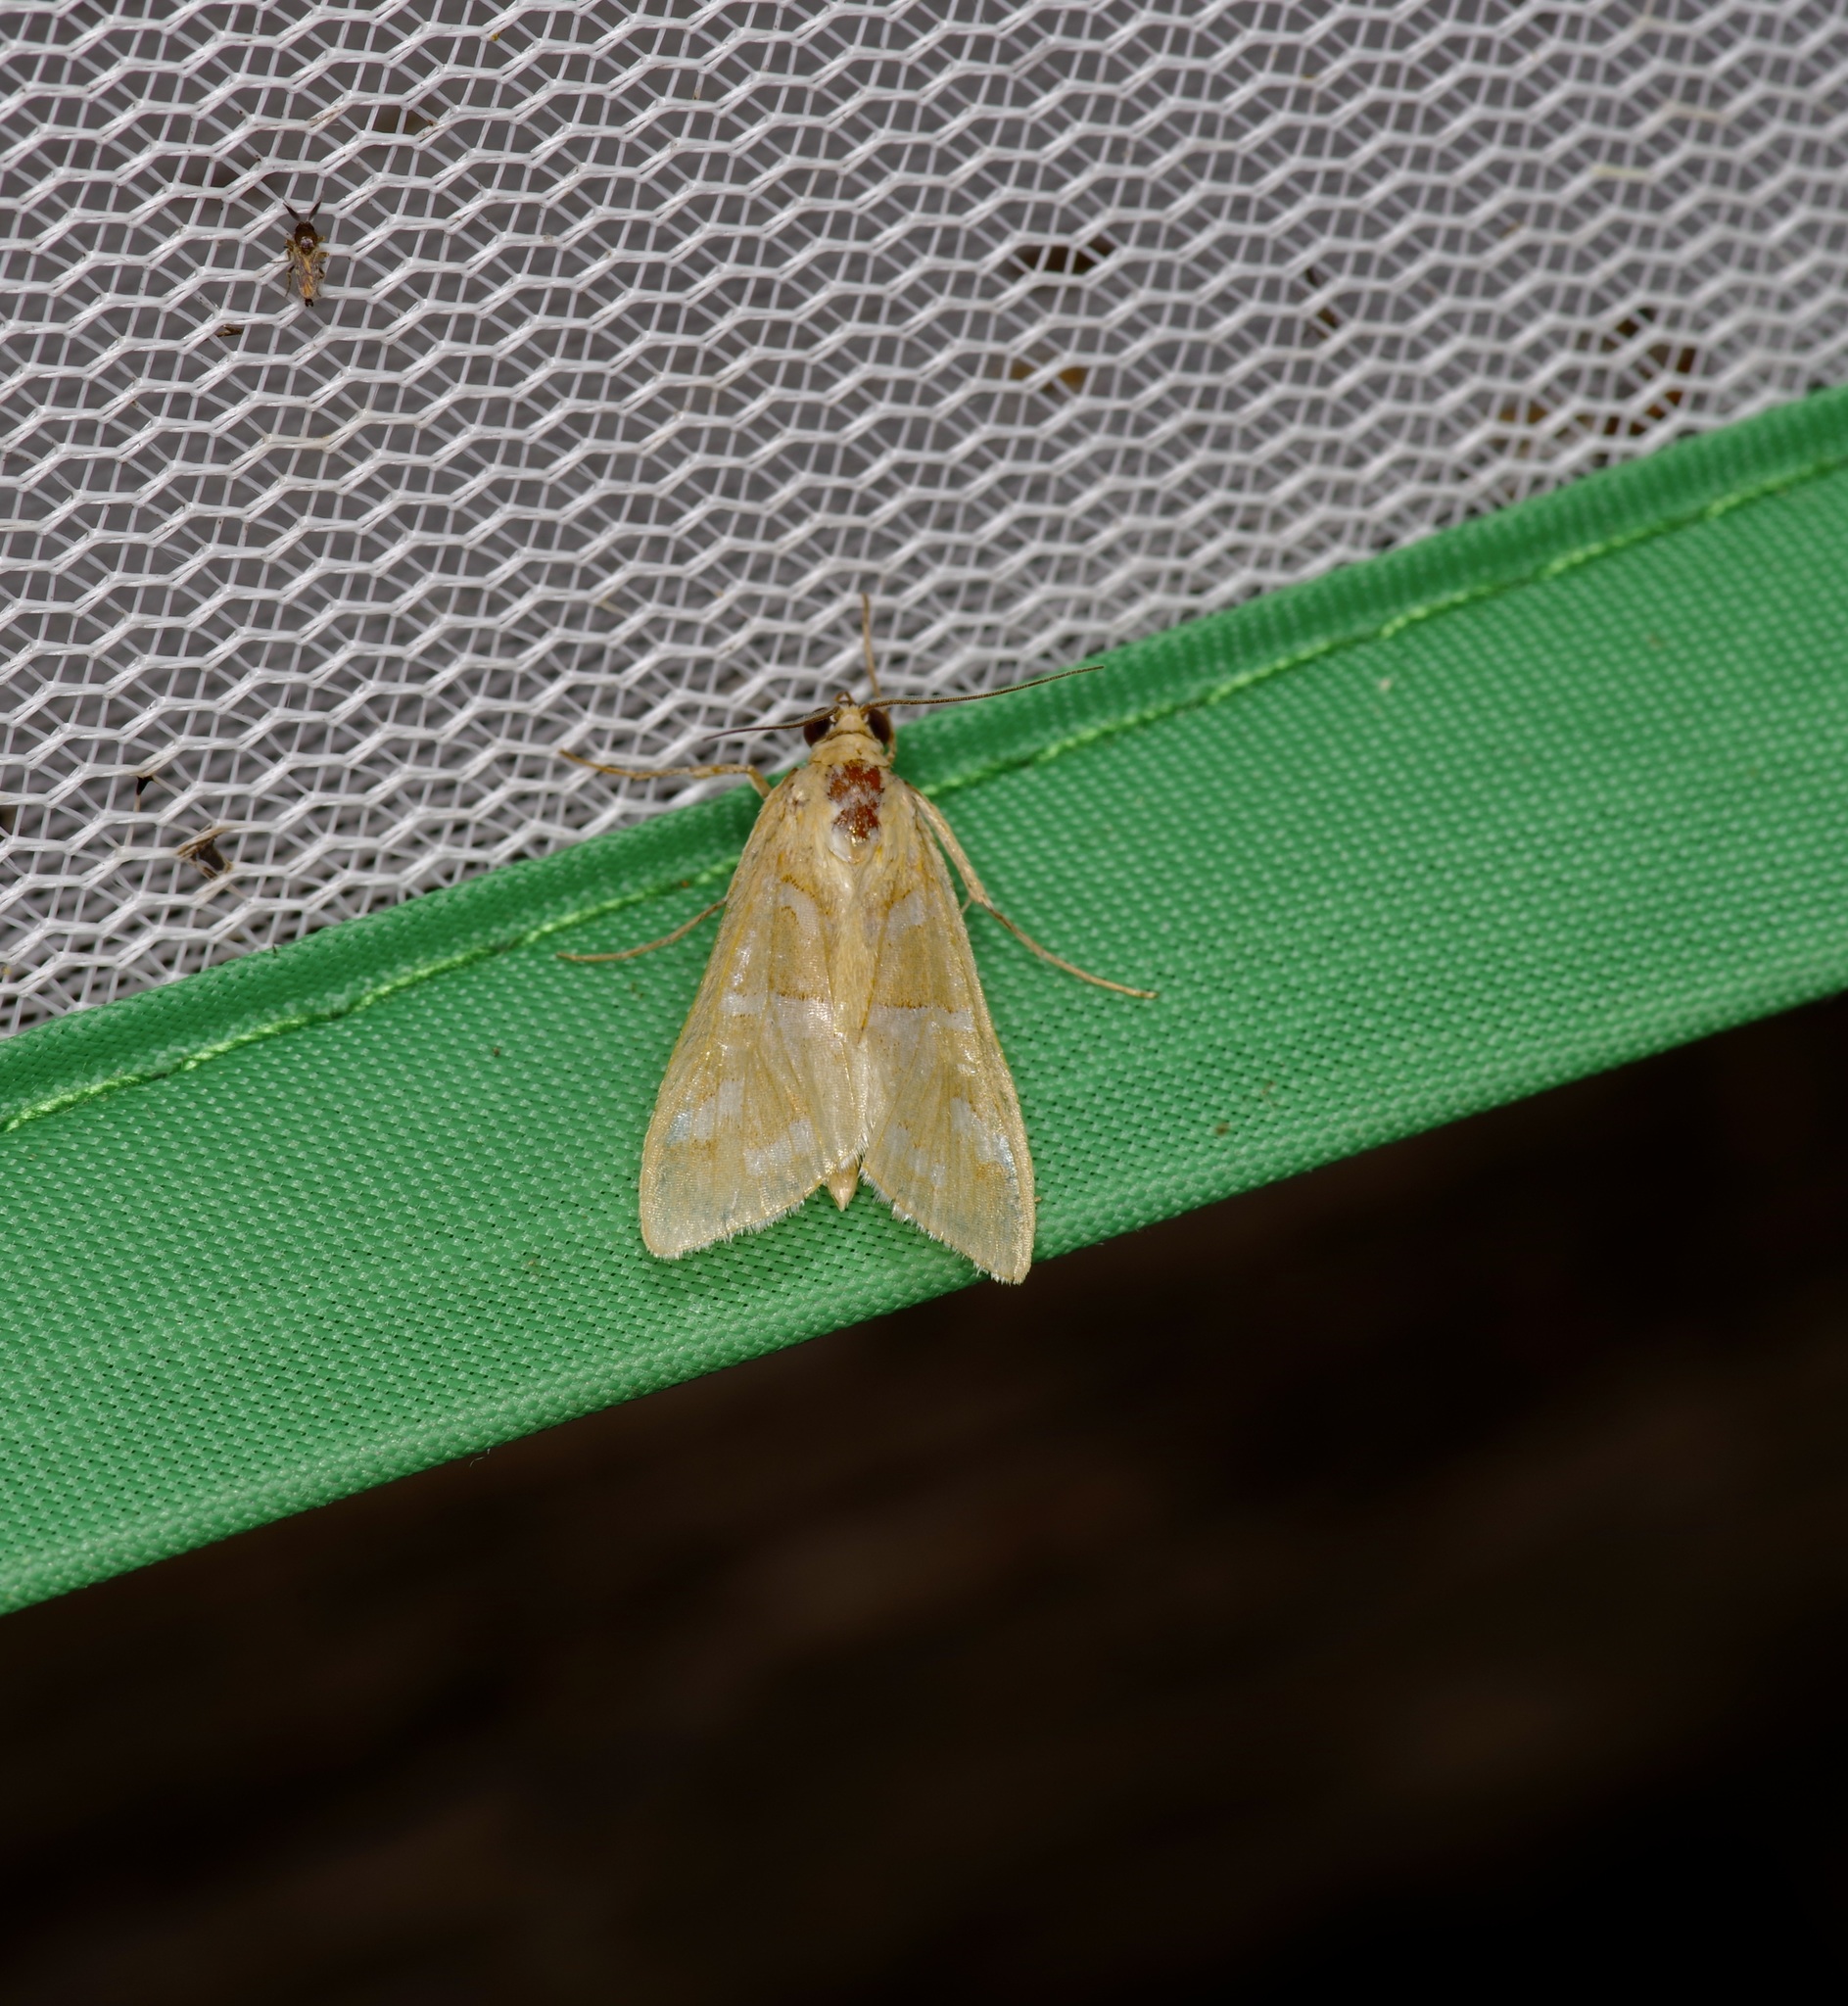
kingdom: Animalia
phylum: Arthropoda
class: Insecta
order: Lepidoptera
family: Crambidae
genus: Diastictis
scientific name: Diastictis fracturalis
